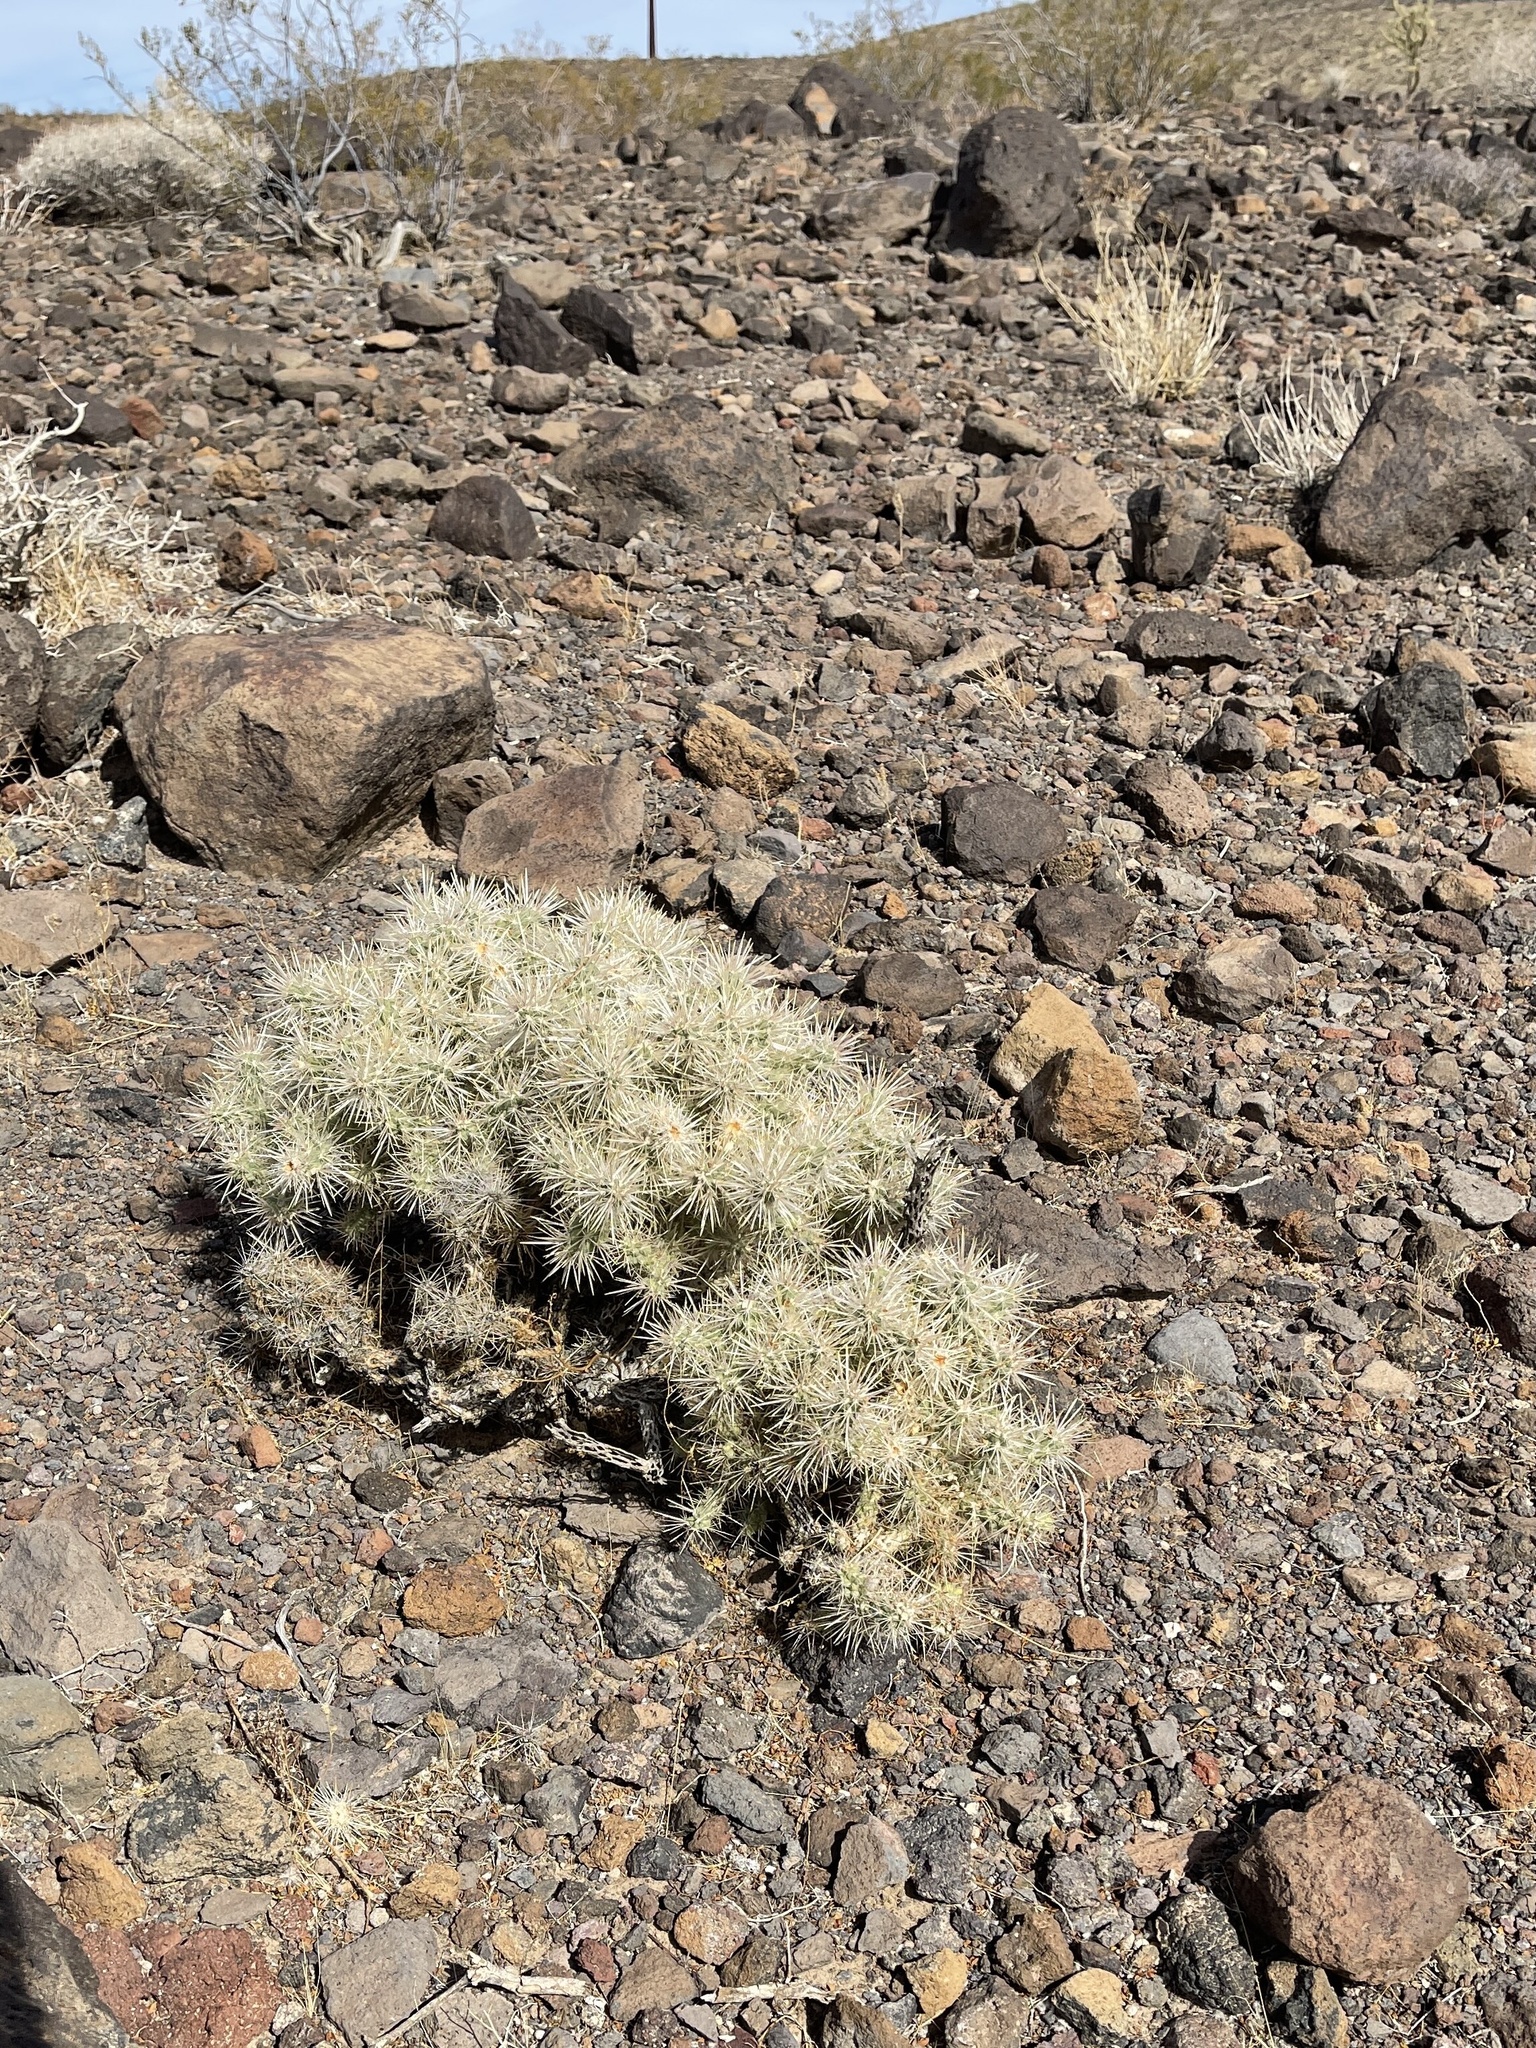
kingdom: Plantae
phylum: Tracheophyta
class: Magnoliopsida
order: Caryophyllales
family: Cactaceae
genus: Cylindropuntia
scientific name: Cylindropuntia echinocarpa
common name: Ground cholla
